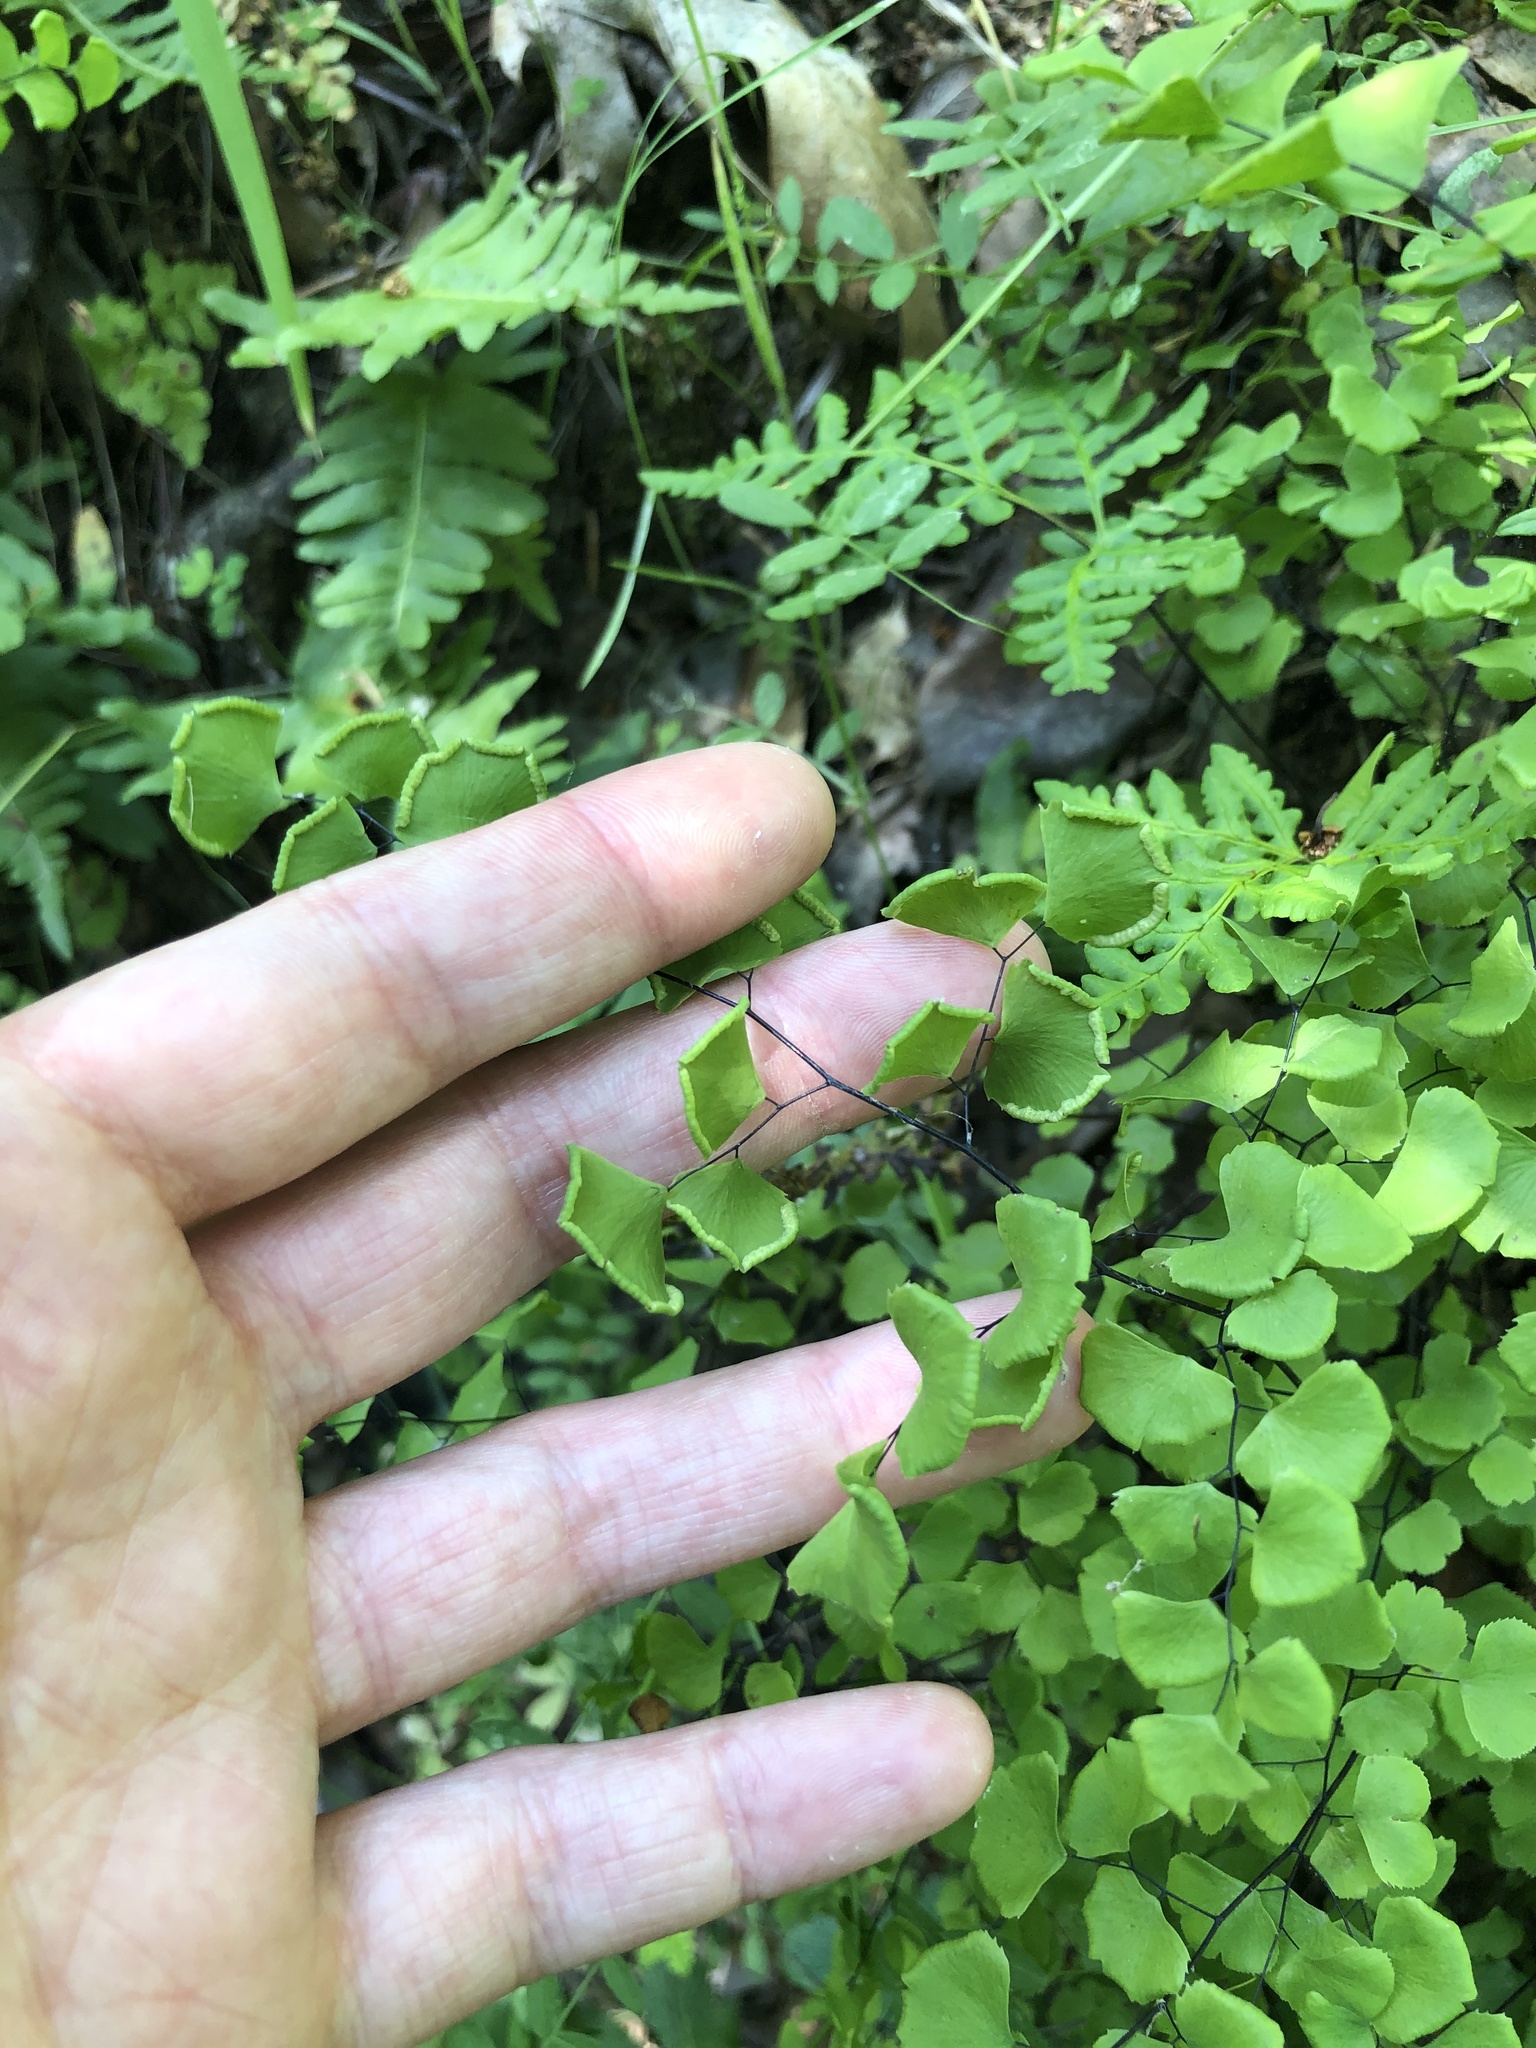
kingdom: Plantae
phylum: Tracheophyta
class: Polypodiopsida
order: Polypodiales
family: Pteridaceae
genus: Adiantum
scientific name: Adiantum jordanii
